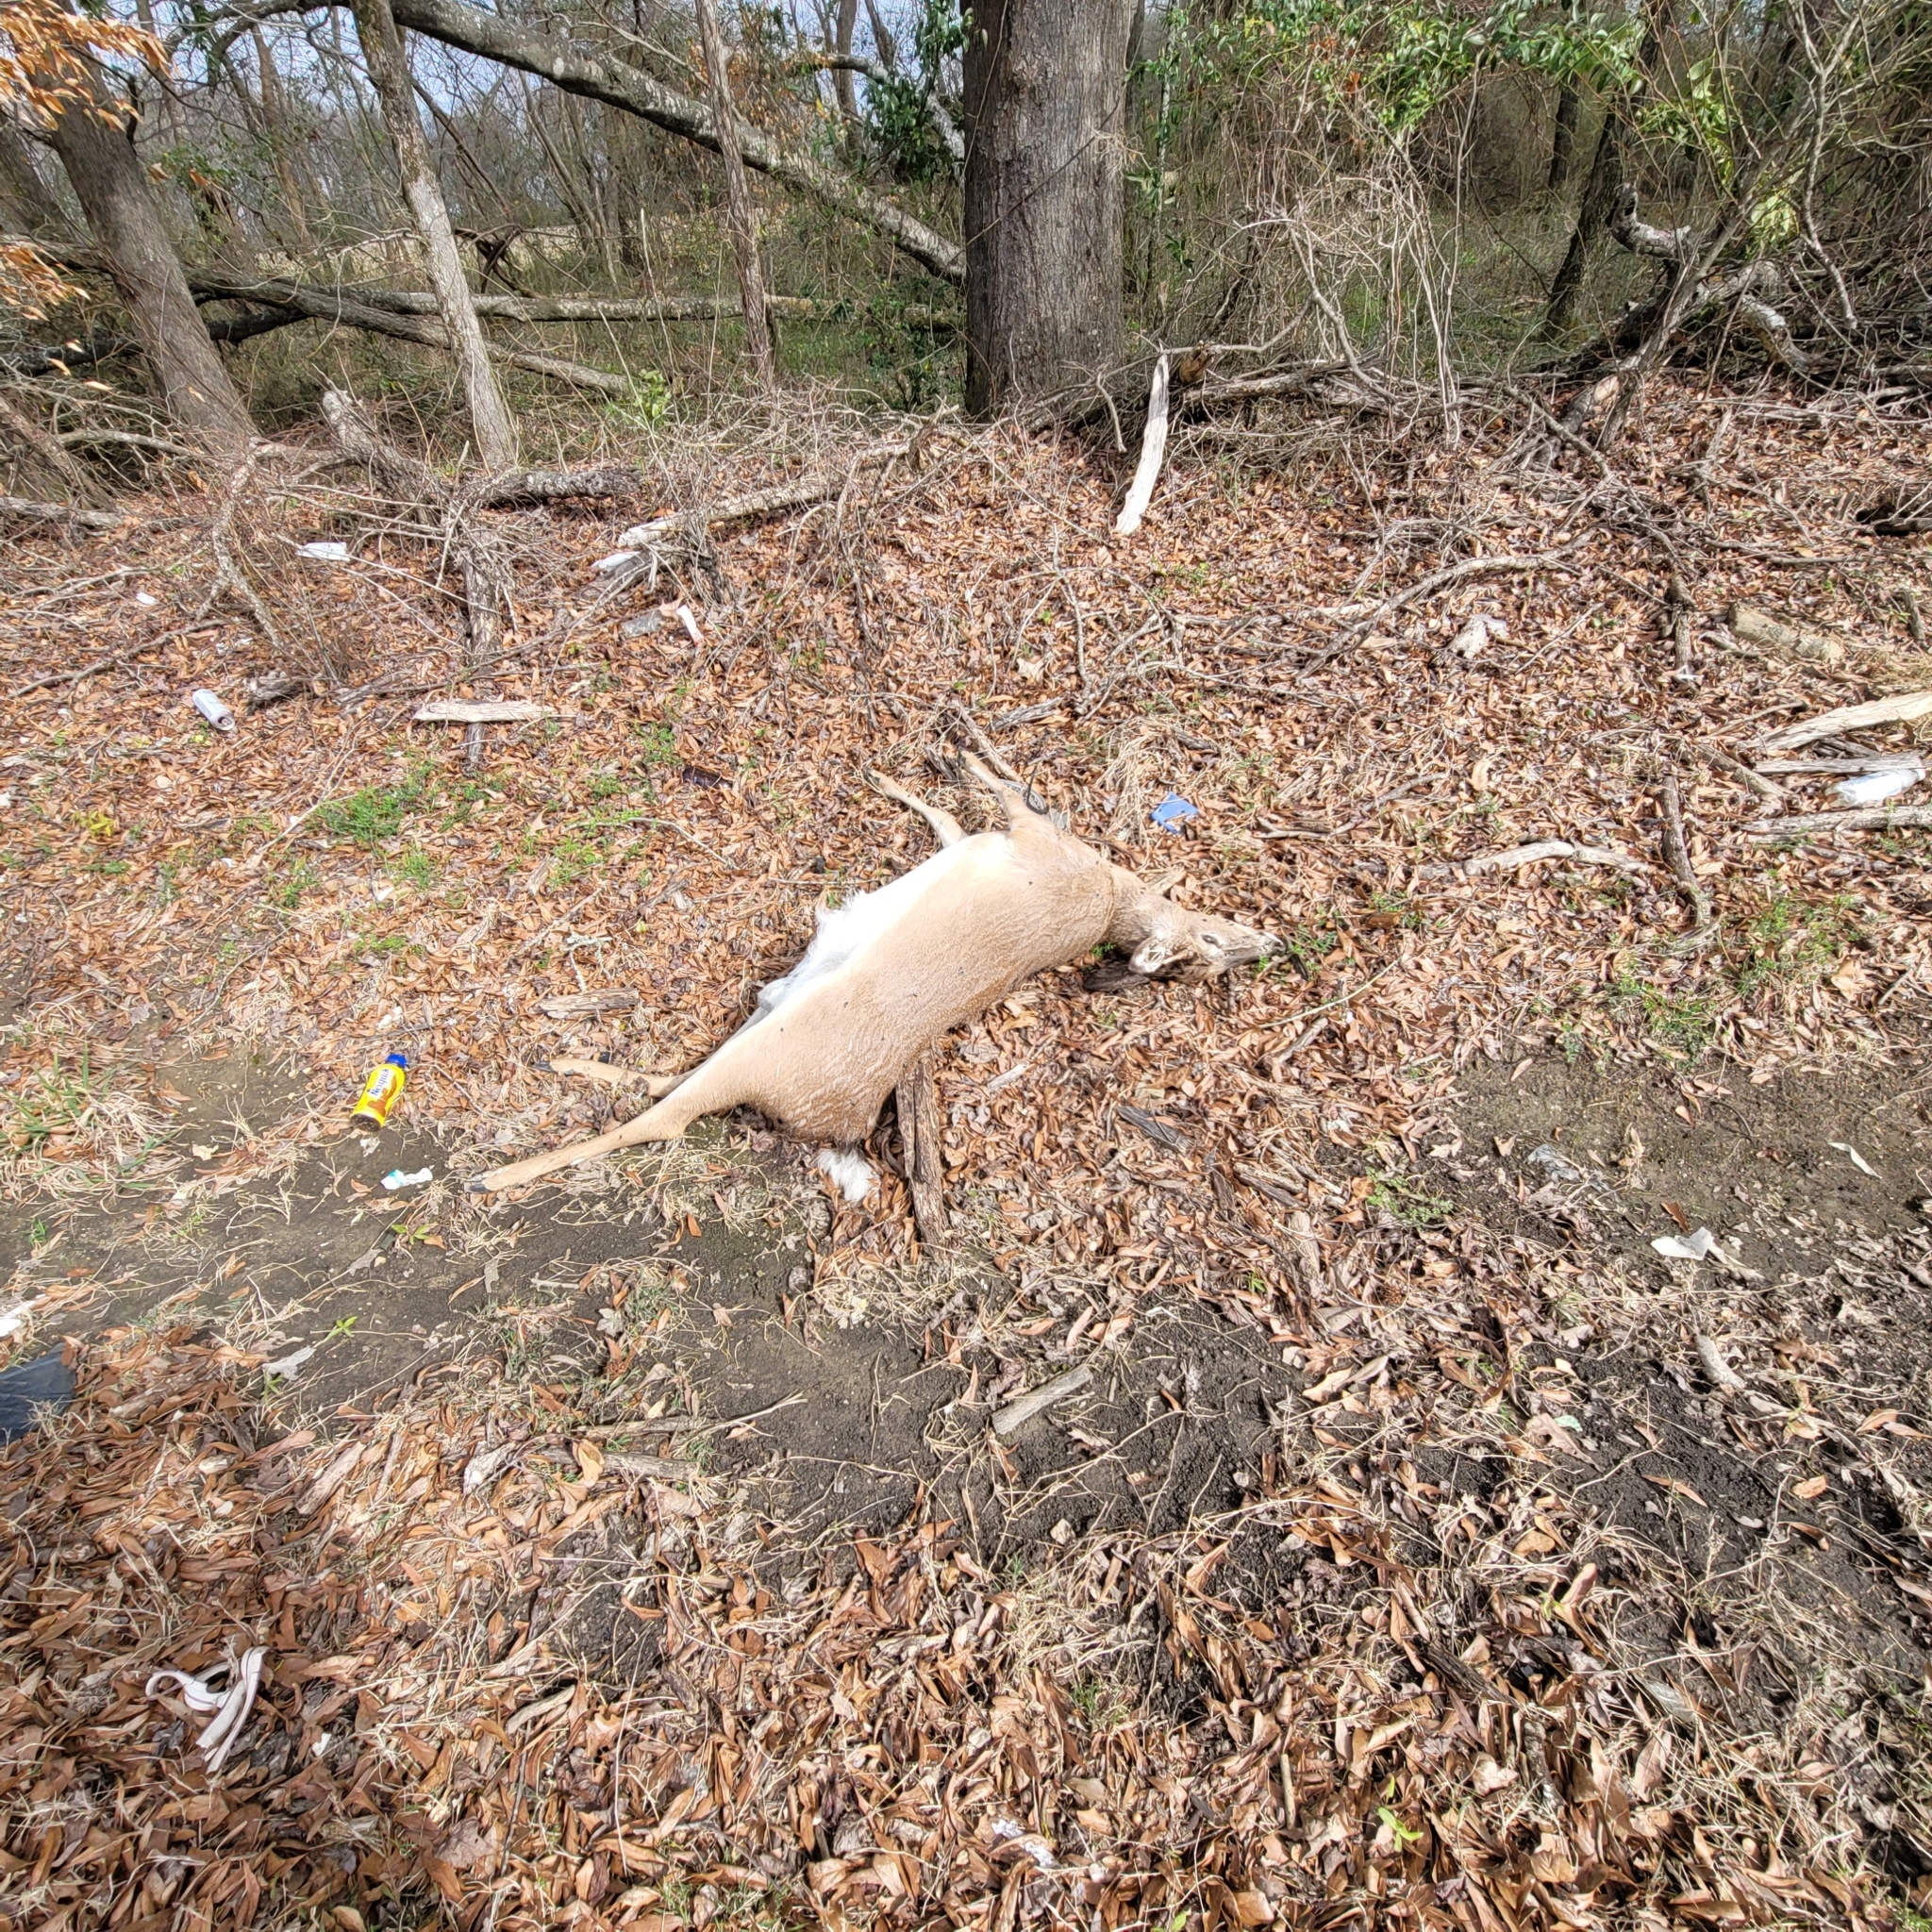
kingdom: Animalia
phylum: Chordata
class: Mammalia
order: Artiodactyla
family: Cervidae
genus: Odocoileus
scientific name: Odocoileus virginianus
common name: White-tailed deer
